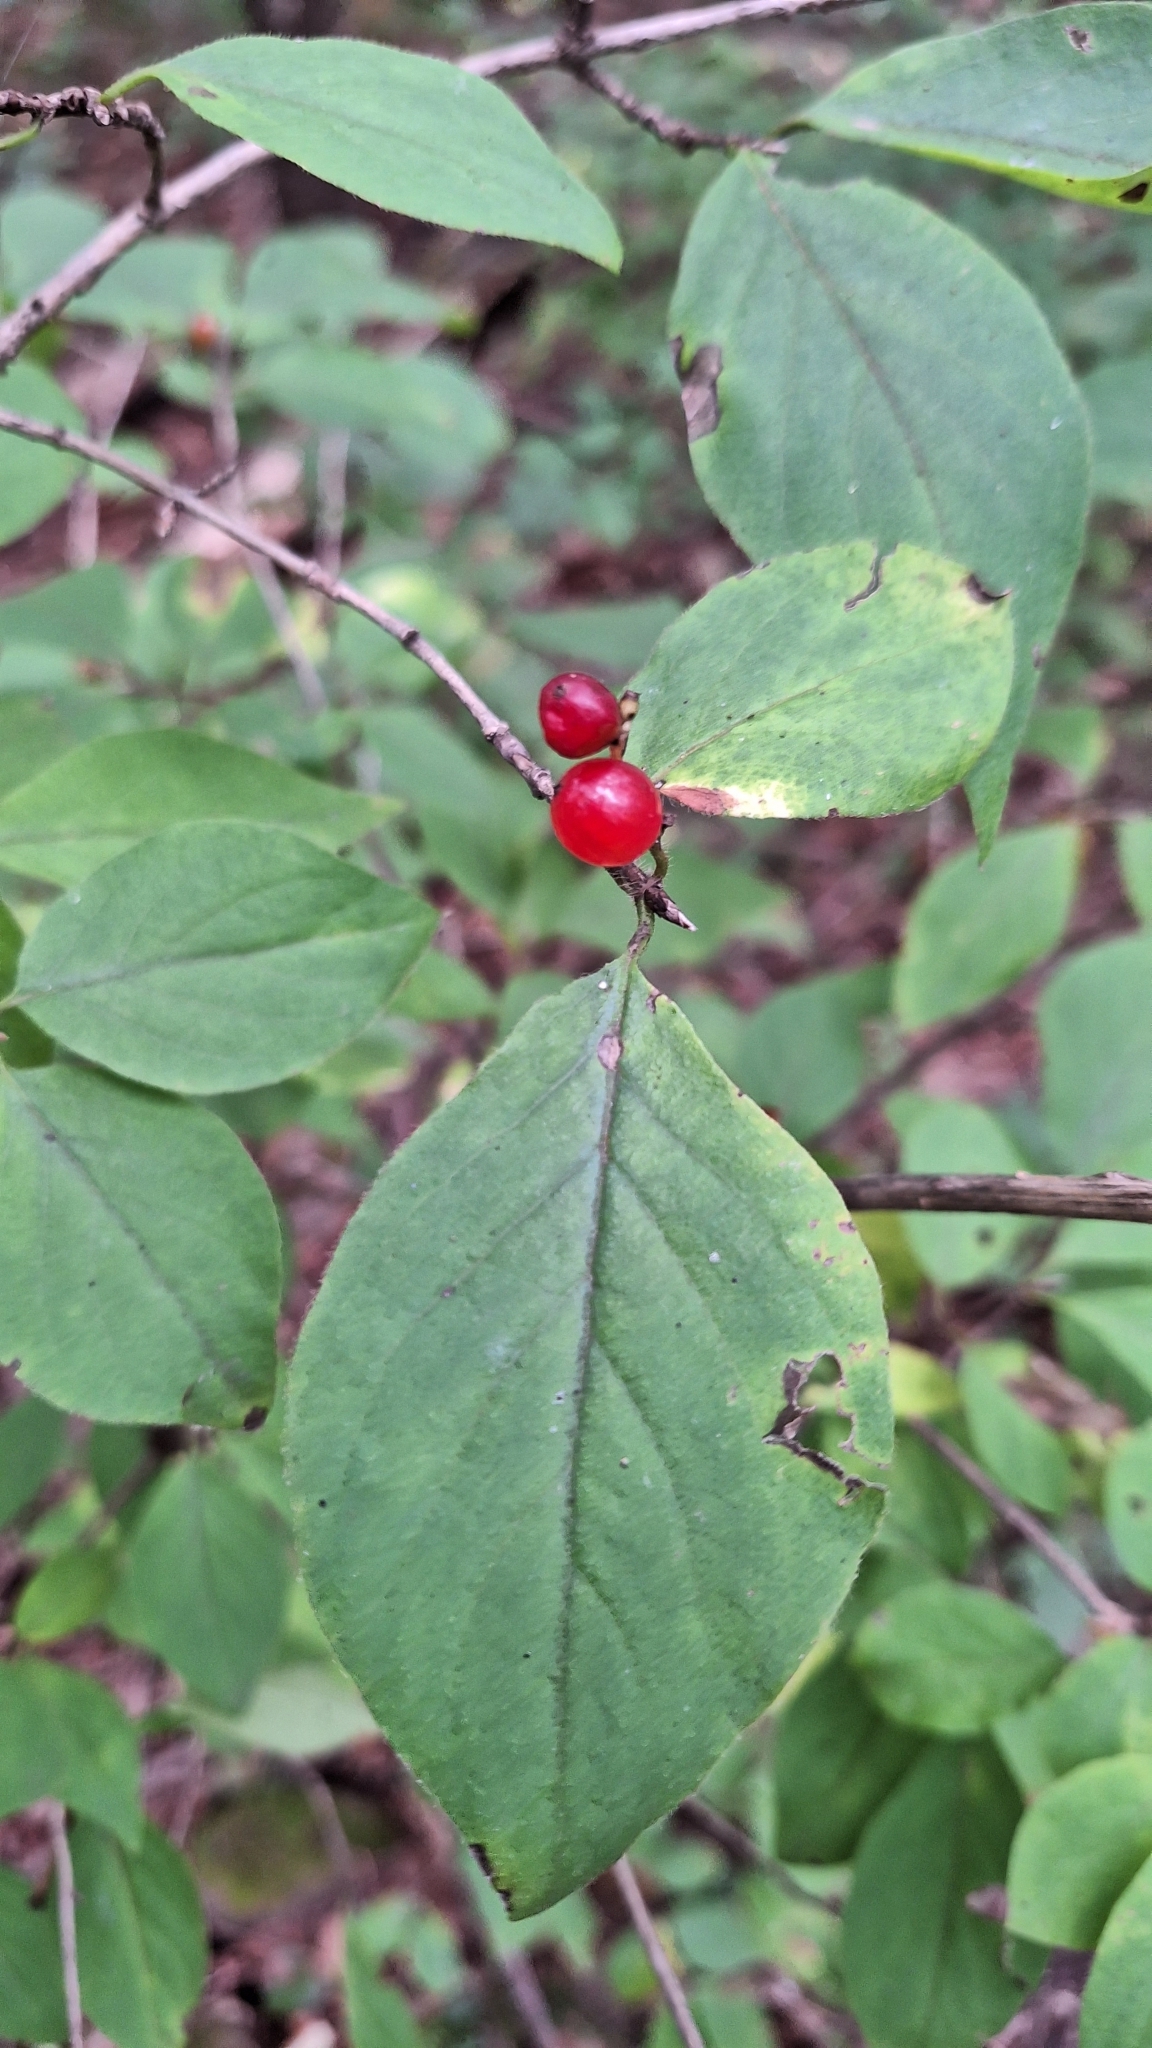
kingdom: Plantae
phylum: Tracheophyta
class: Magnoliopsida
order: Dipsacales
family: Caprifoliaceae
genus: Lonicera
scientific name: Lonicera chrysantha
